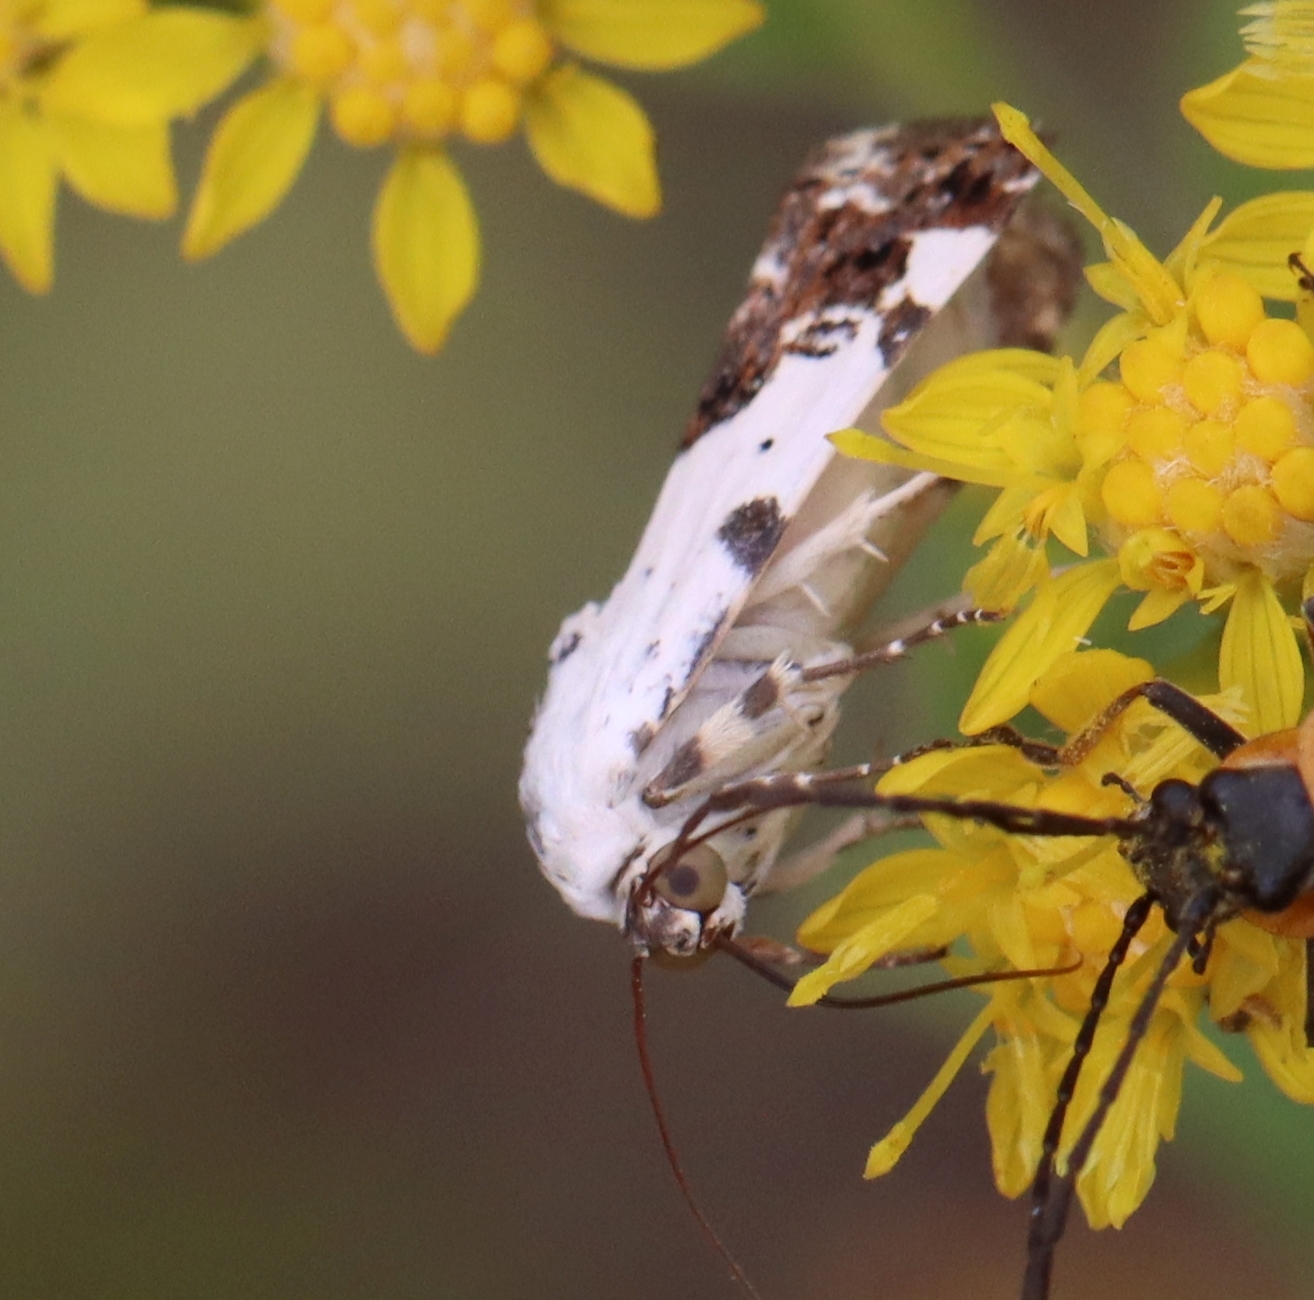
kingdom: Animalia
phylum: Arthropoda
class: Insecta
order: Lepidoptera
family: Noctuidae
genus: Acontia
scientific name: Acontia aprica
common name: Nun
